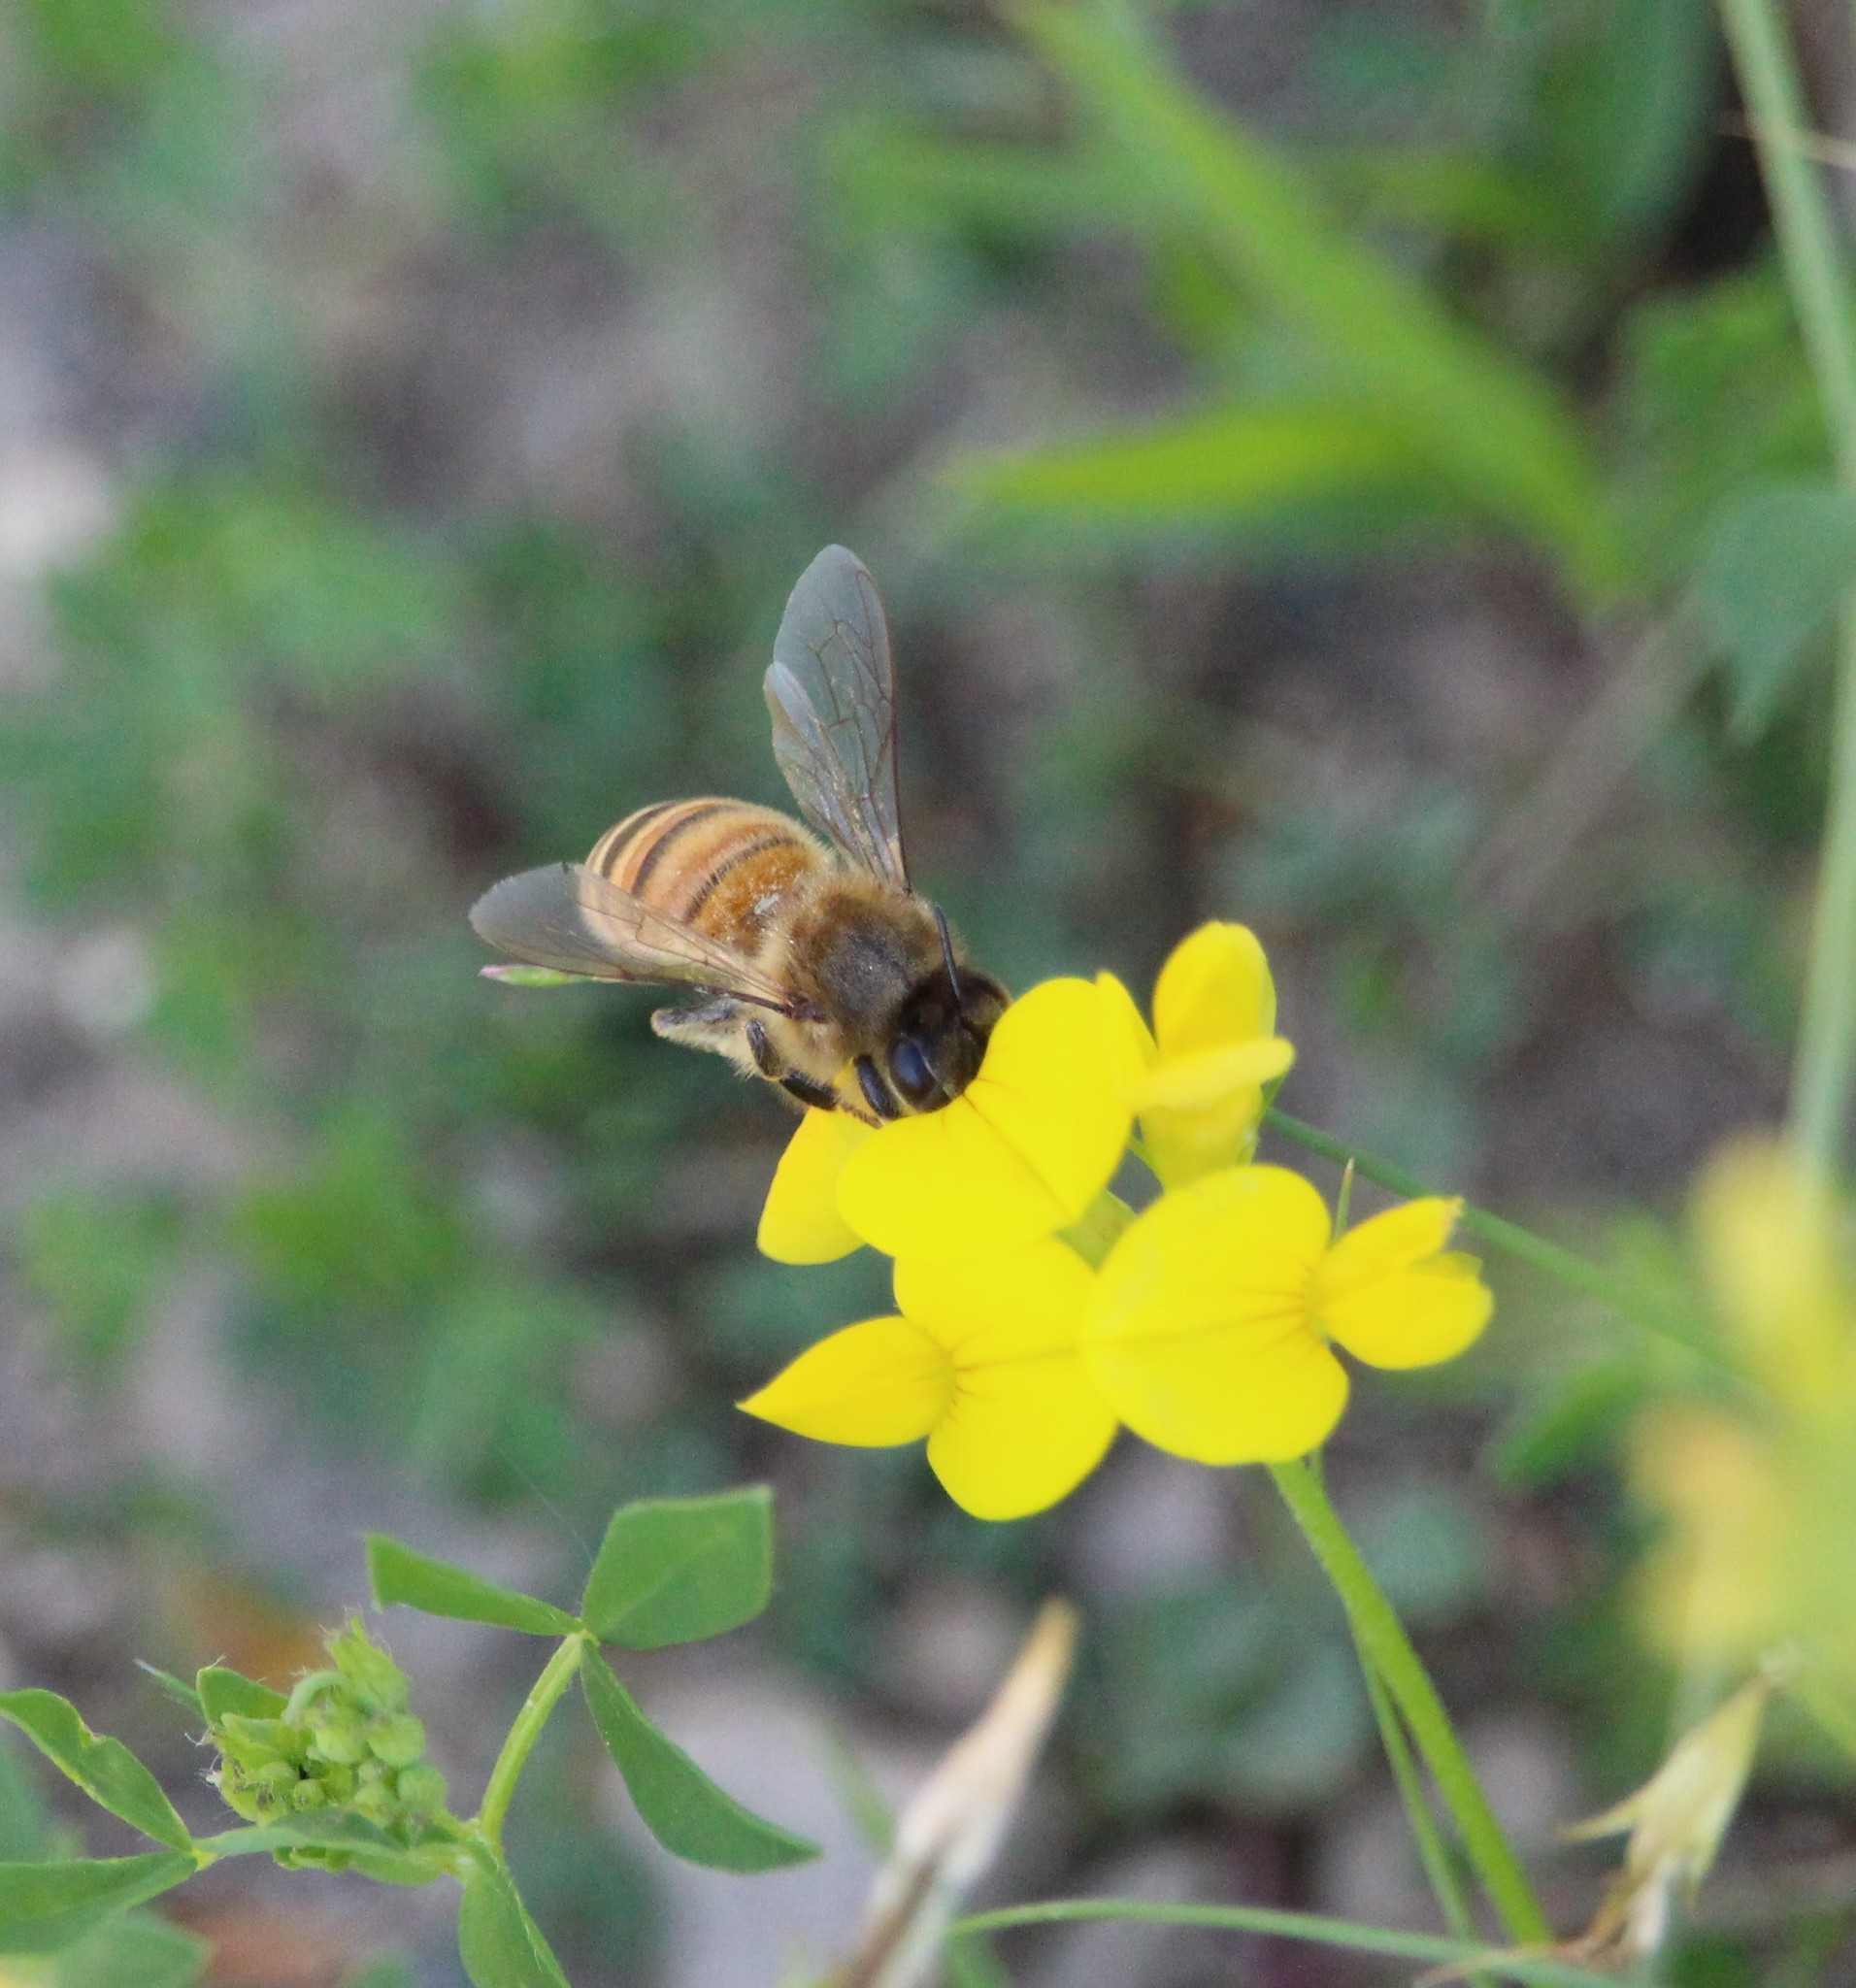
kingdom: Animalia
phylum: Arthropoda
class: Insecta
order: Hymenoptera
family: Apidae
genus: Apis
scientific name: Apis mellifera
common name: Honey bee
